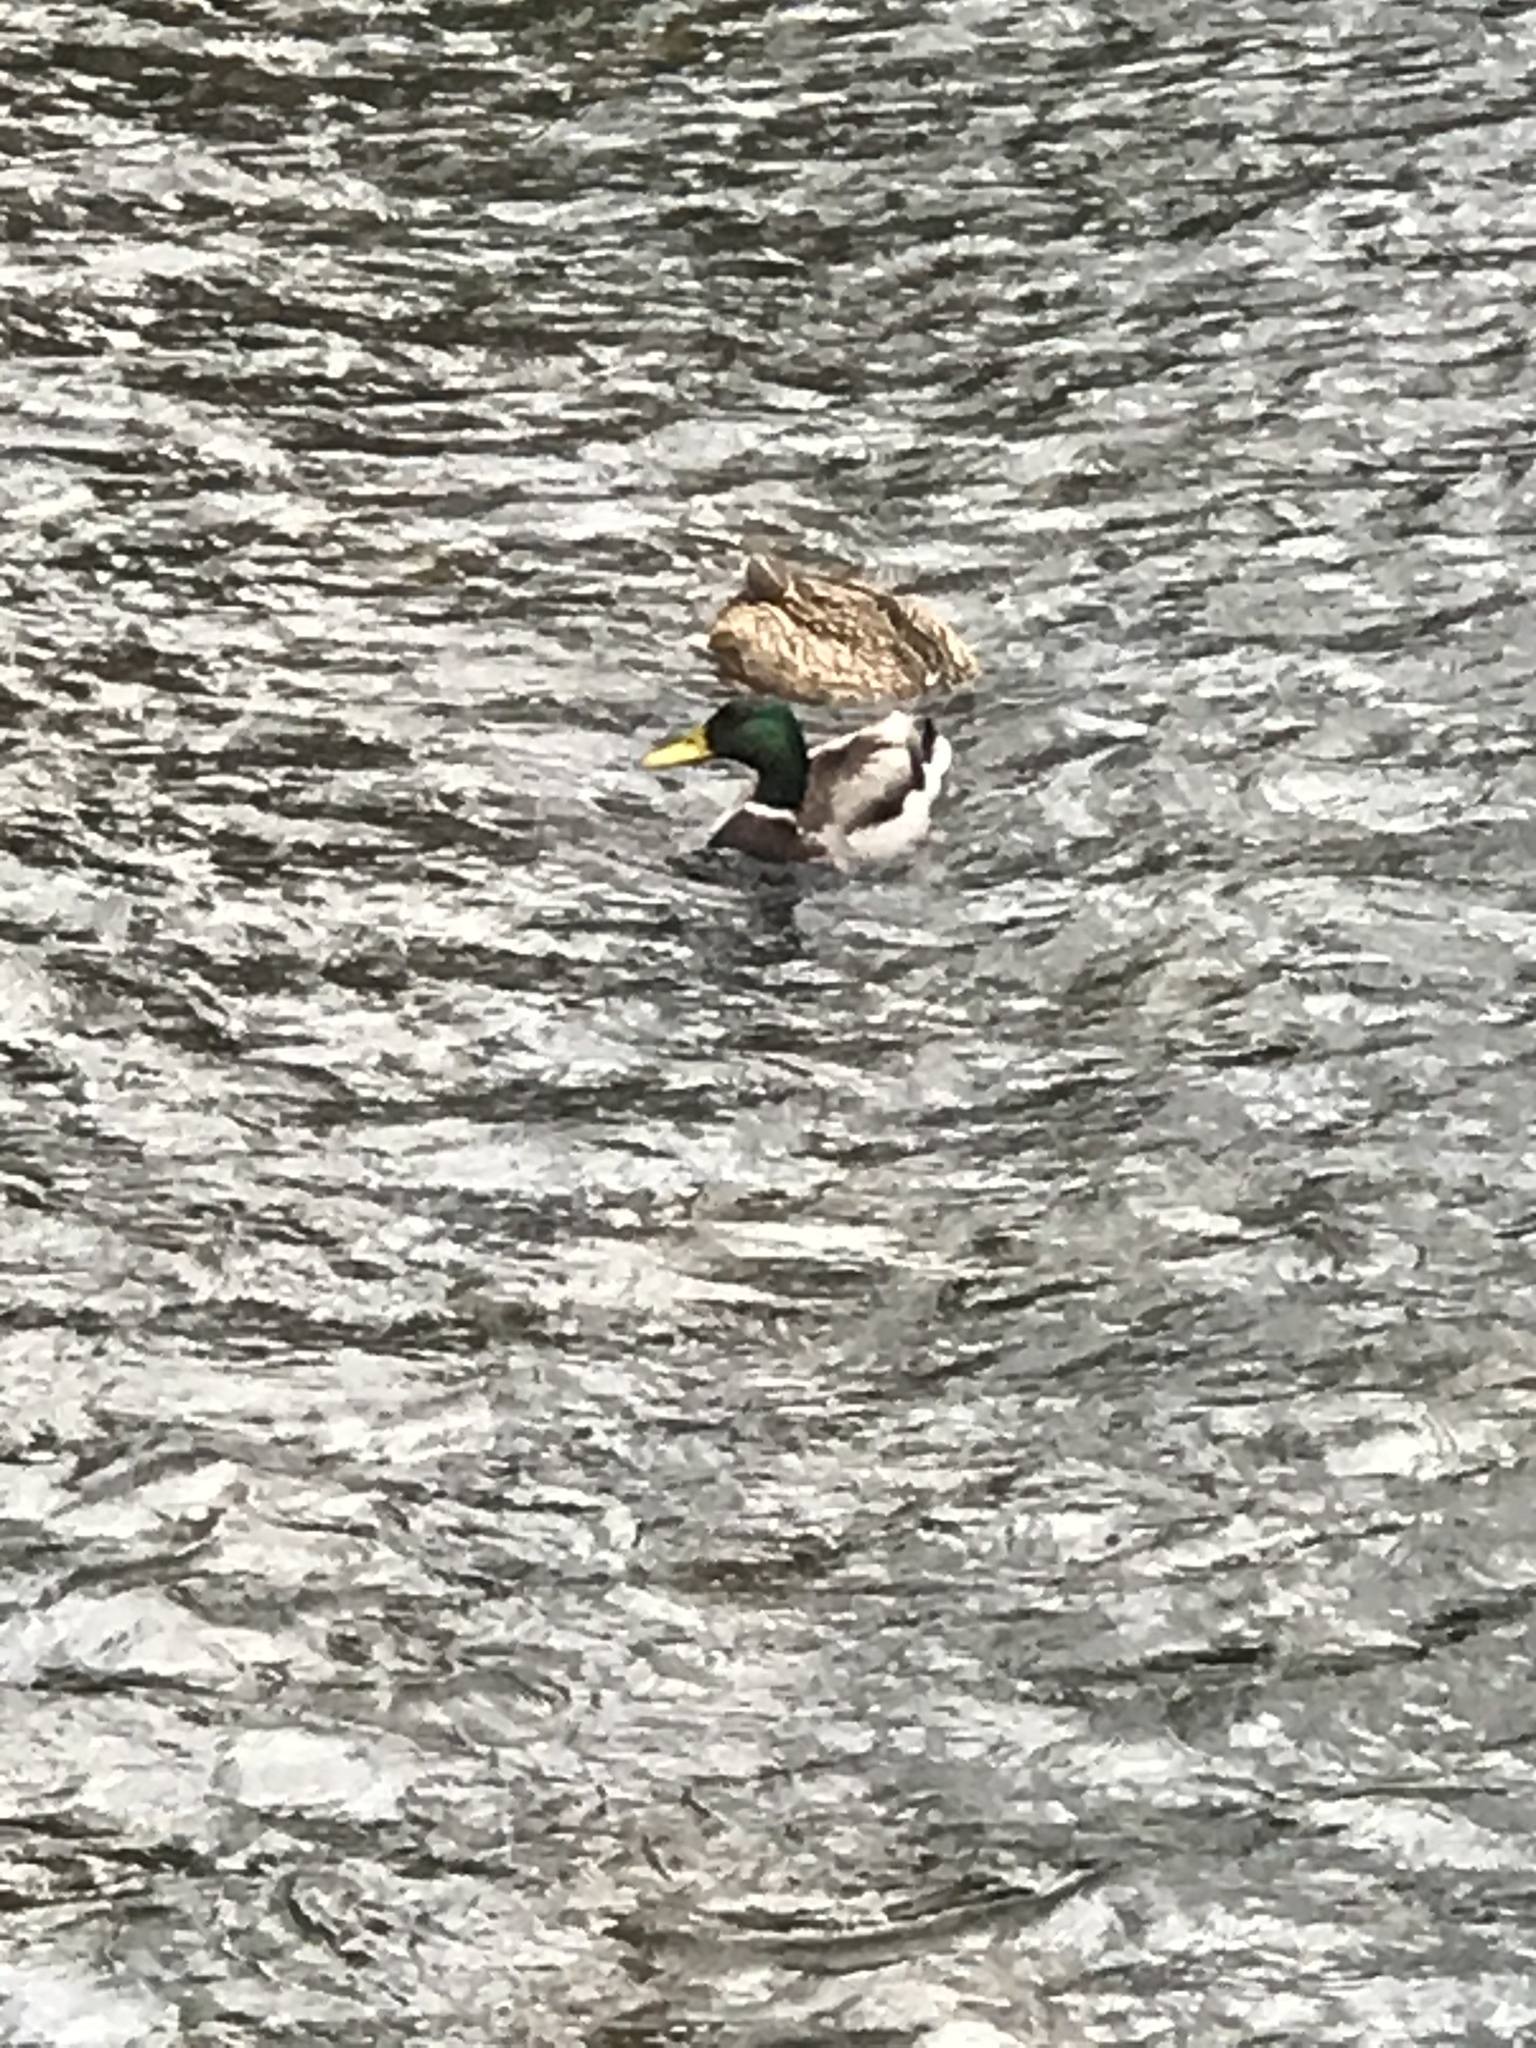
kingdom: Animalia
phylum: Chordata
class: Aves
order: Anseriformes
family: Anatidae
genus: Anas
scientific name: Anas platyrhynchos
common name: Mallard
